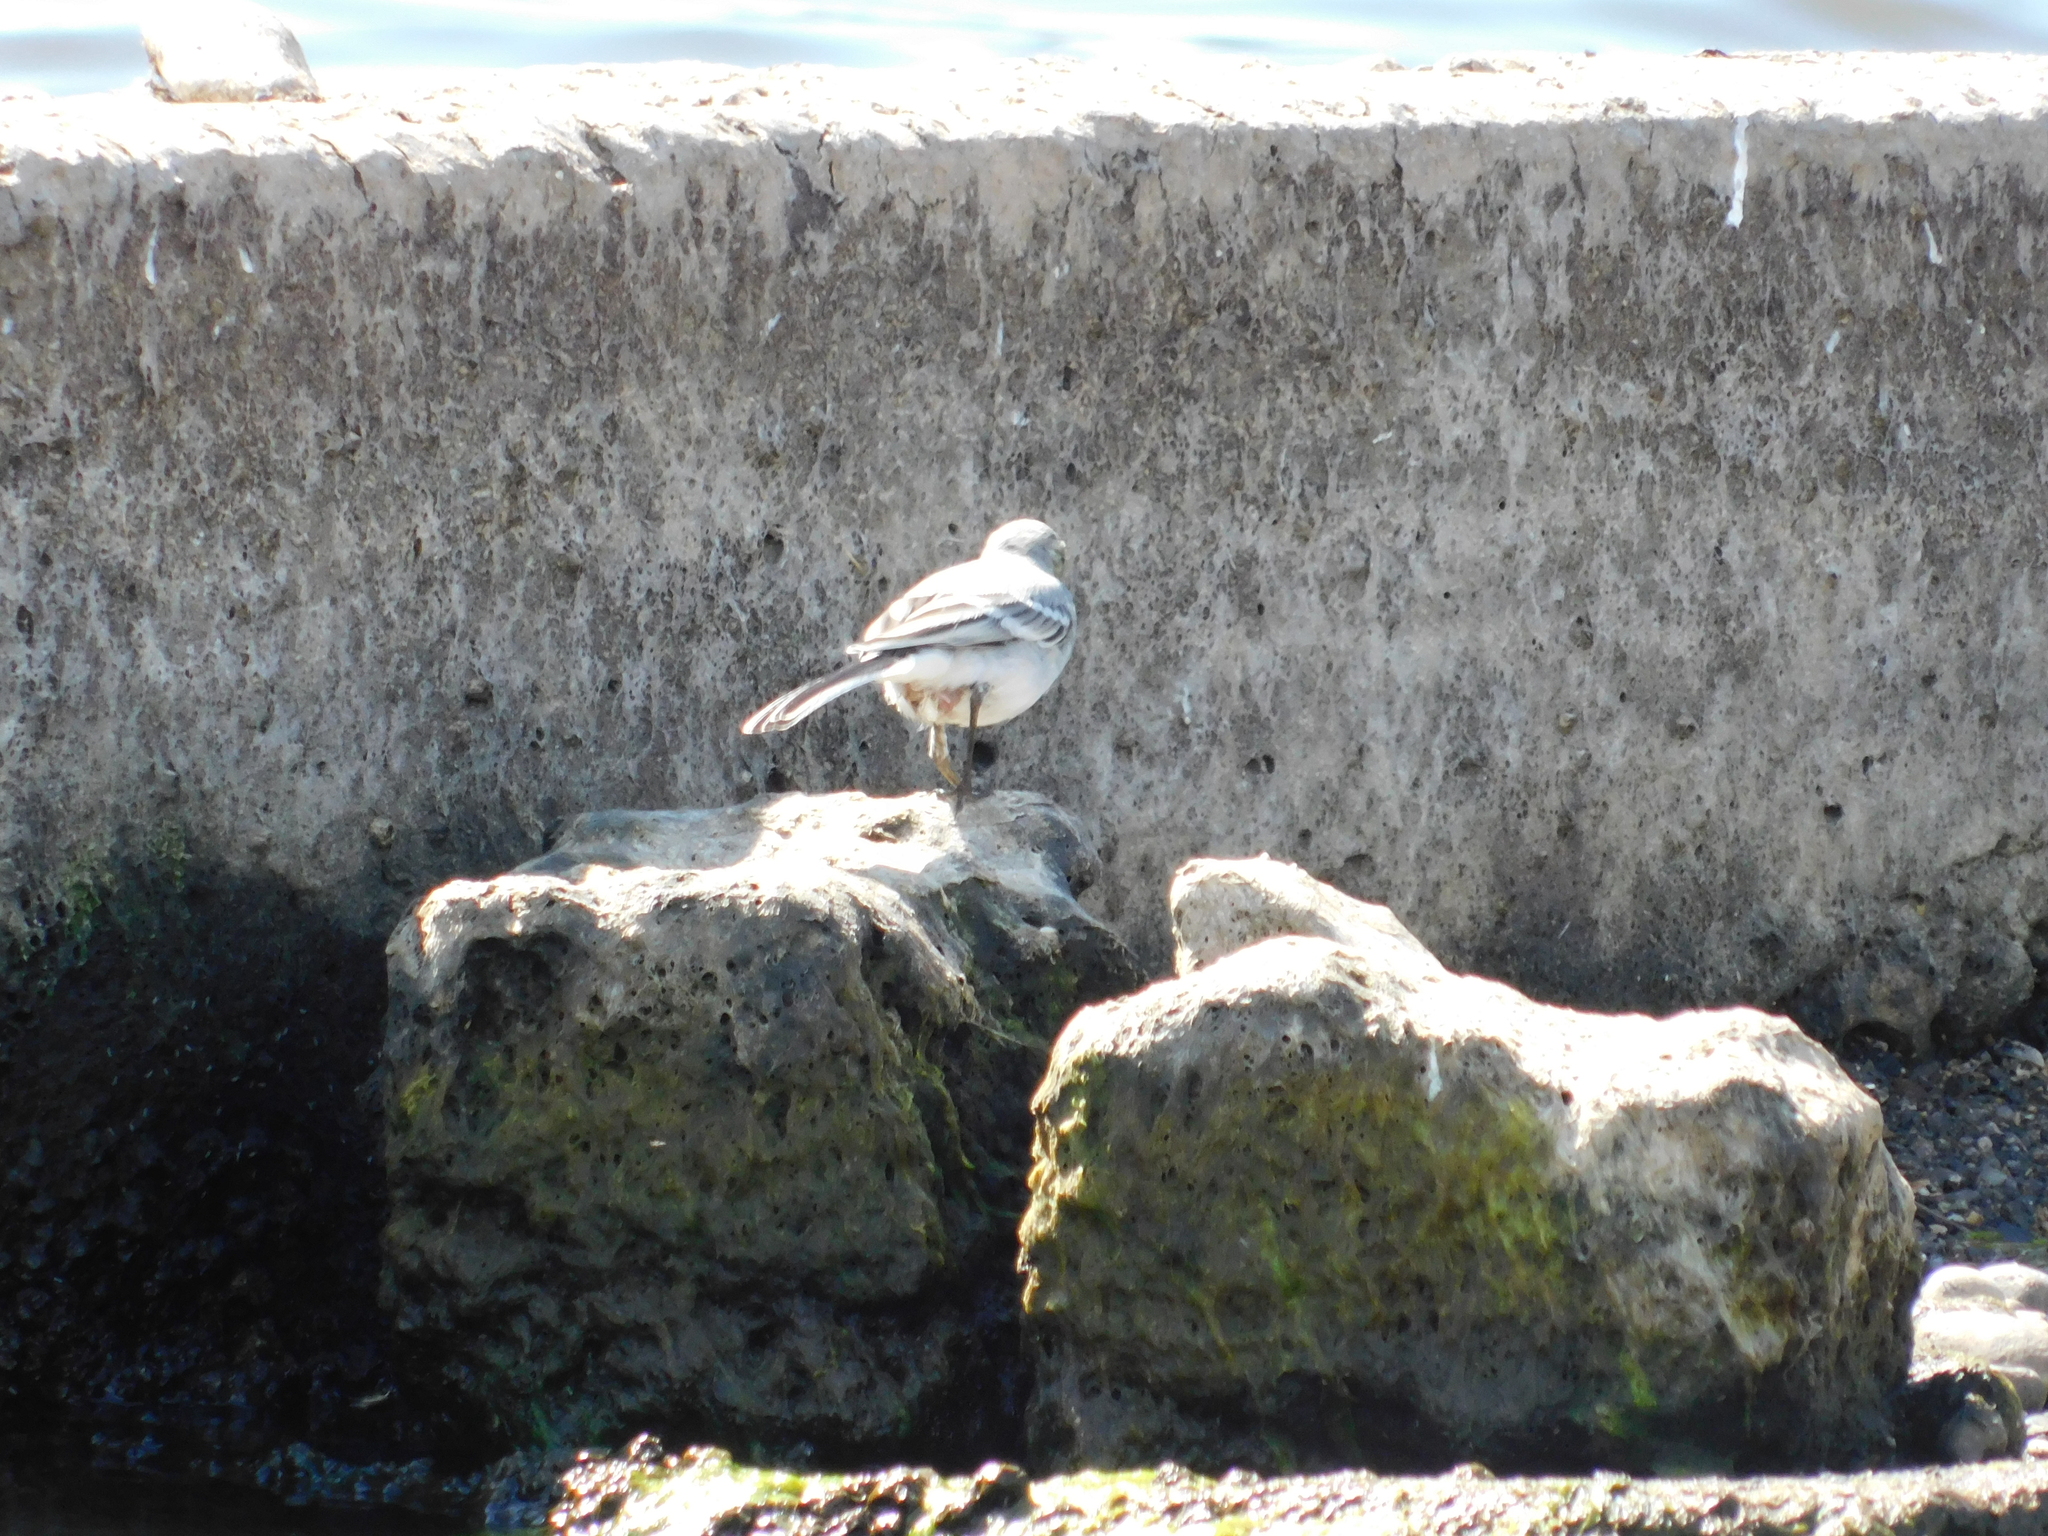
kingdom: Animalia
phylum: Chordata
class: Aves
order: Passeriformes
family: Motacillidae
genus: Motacilla
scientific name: Motacilla alba
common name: White wagtail
